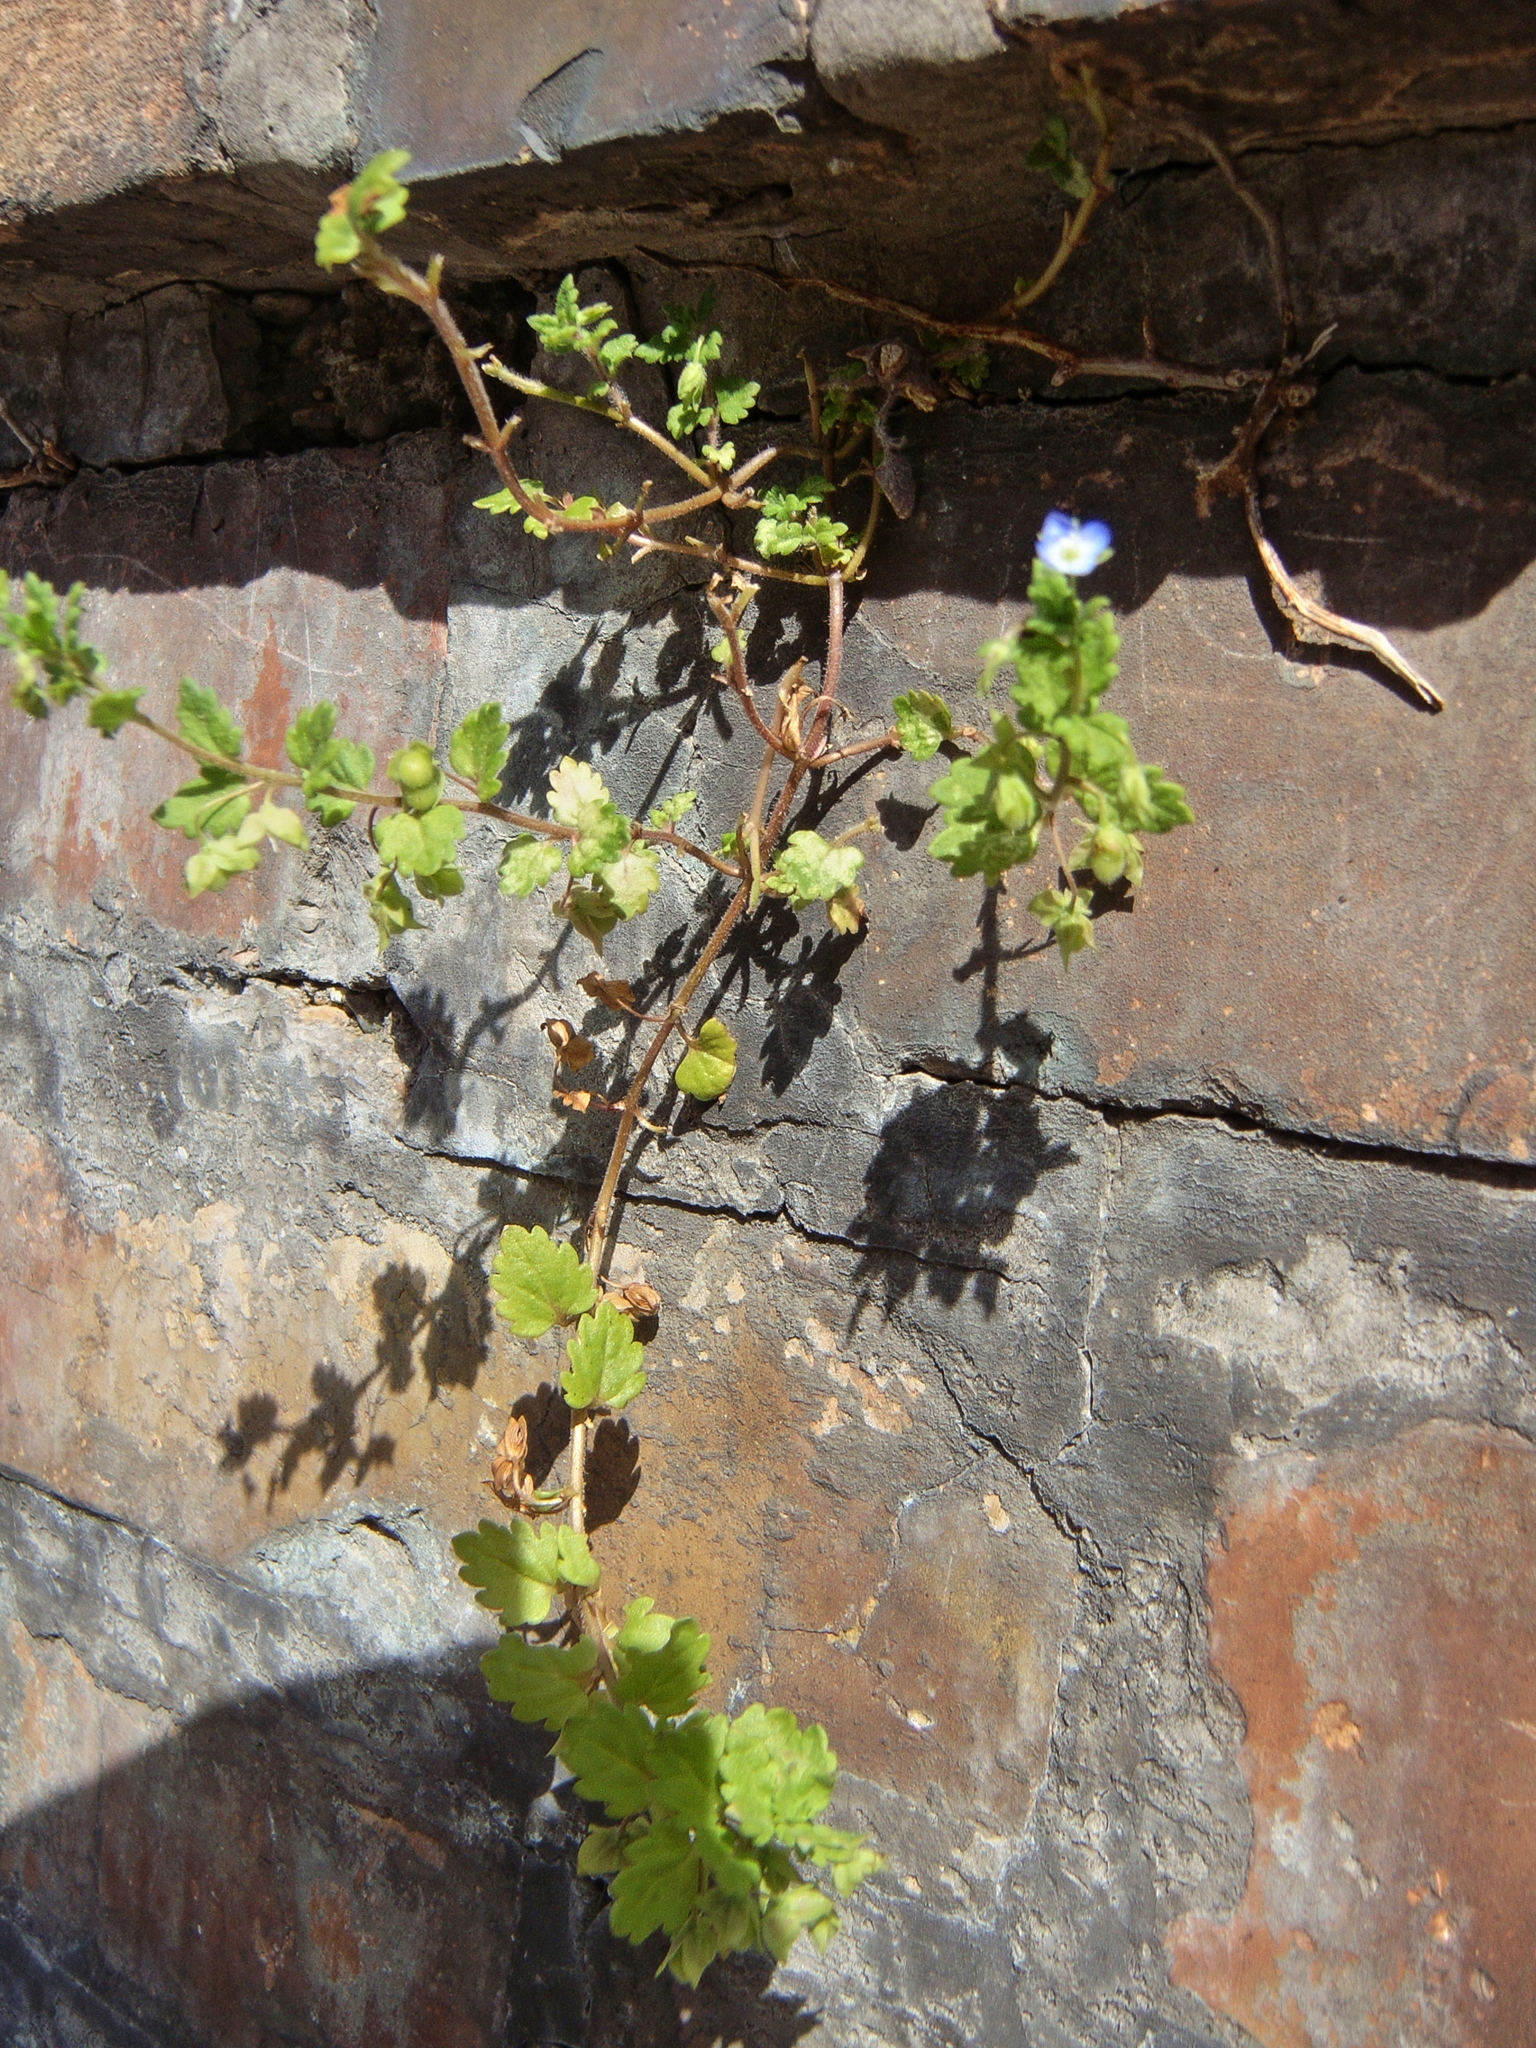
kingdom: Plantae
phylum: Tracheophyta
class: Magnoliopsida
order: Lamiales
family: Plantaginaceae
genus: Veronica
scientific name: Veronica persica
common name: Common field-speedwell
